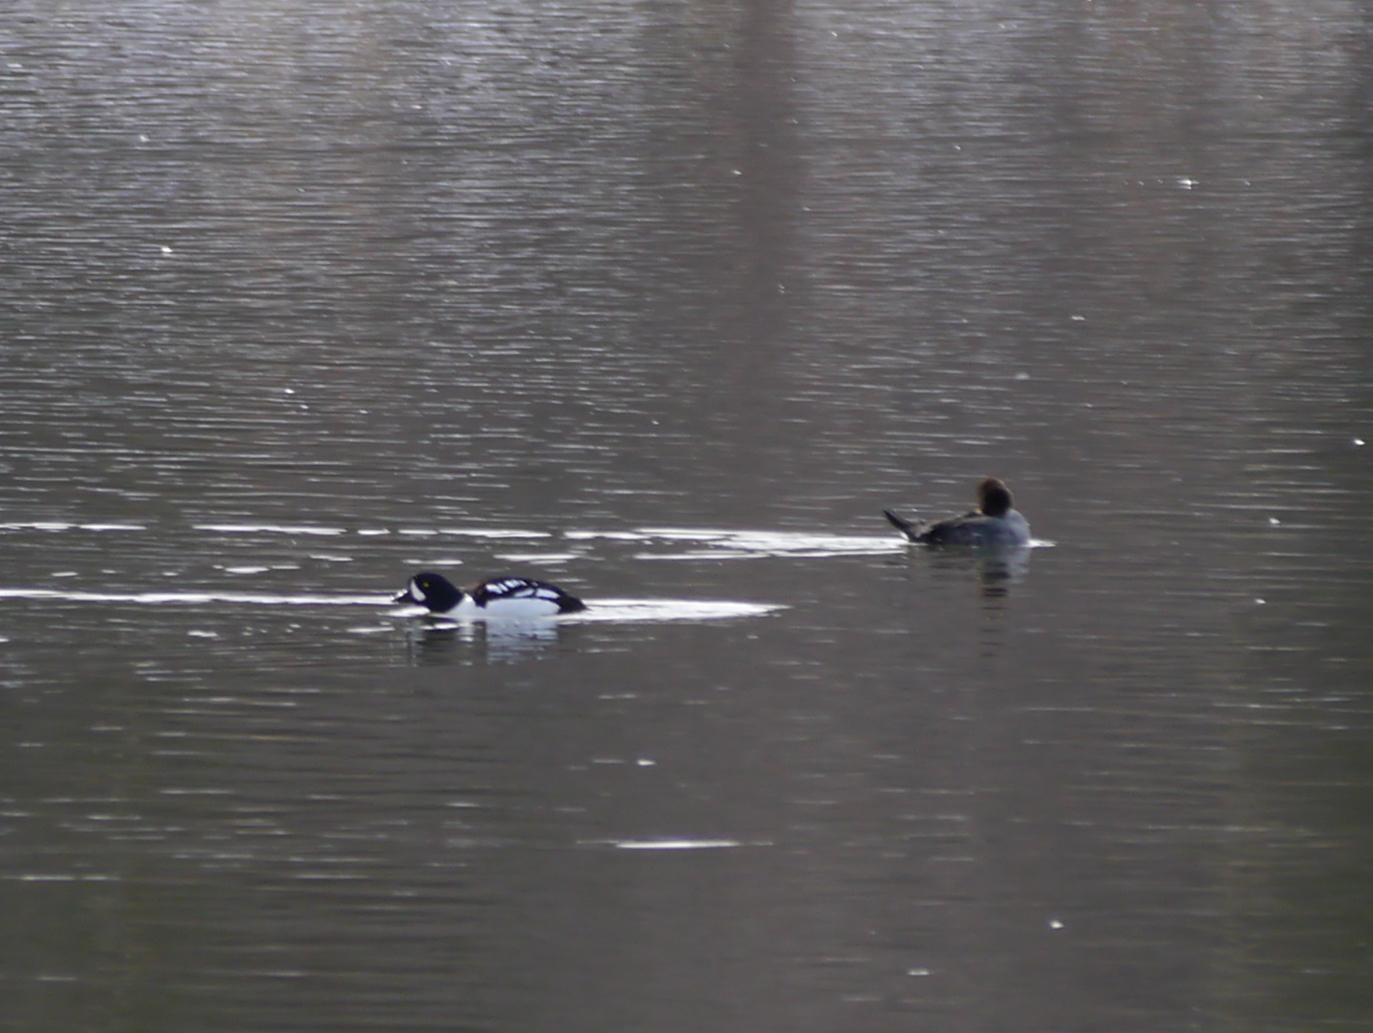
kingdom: Animalia
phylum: Chordata
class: Aves
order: Anseriformes
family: Anatidae
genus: Bucephala
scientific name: Bucephala islandica
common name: Barrow's goldeneye
